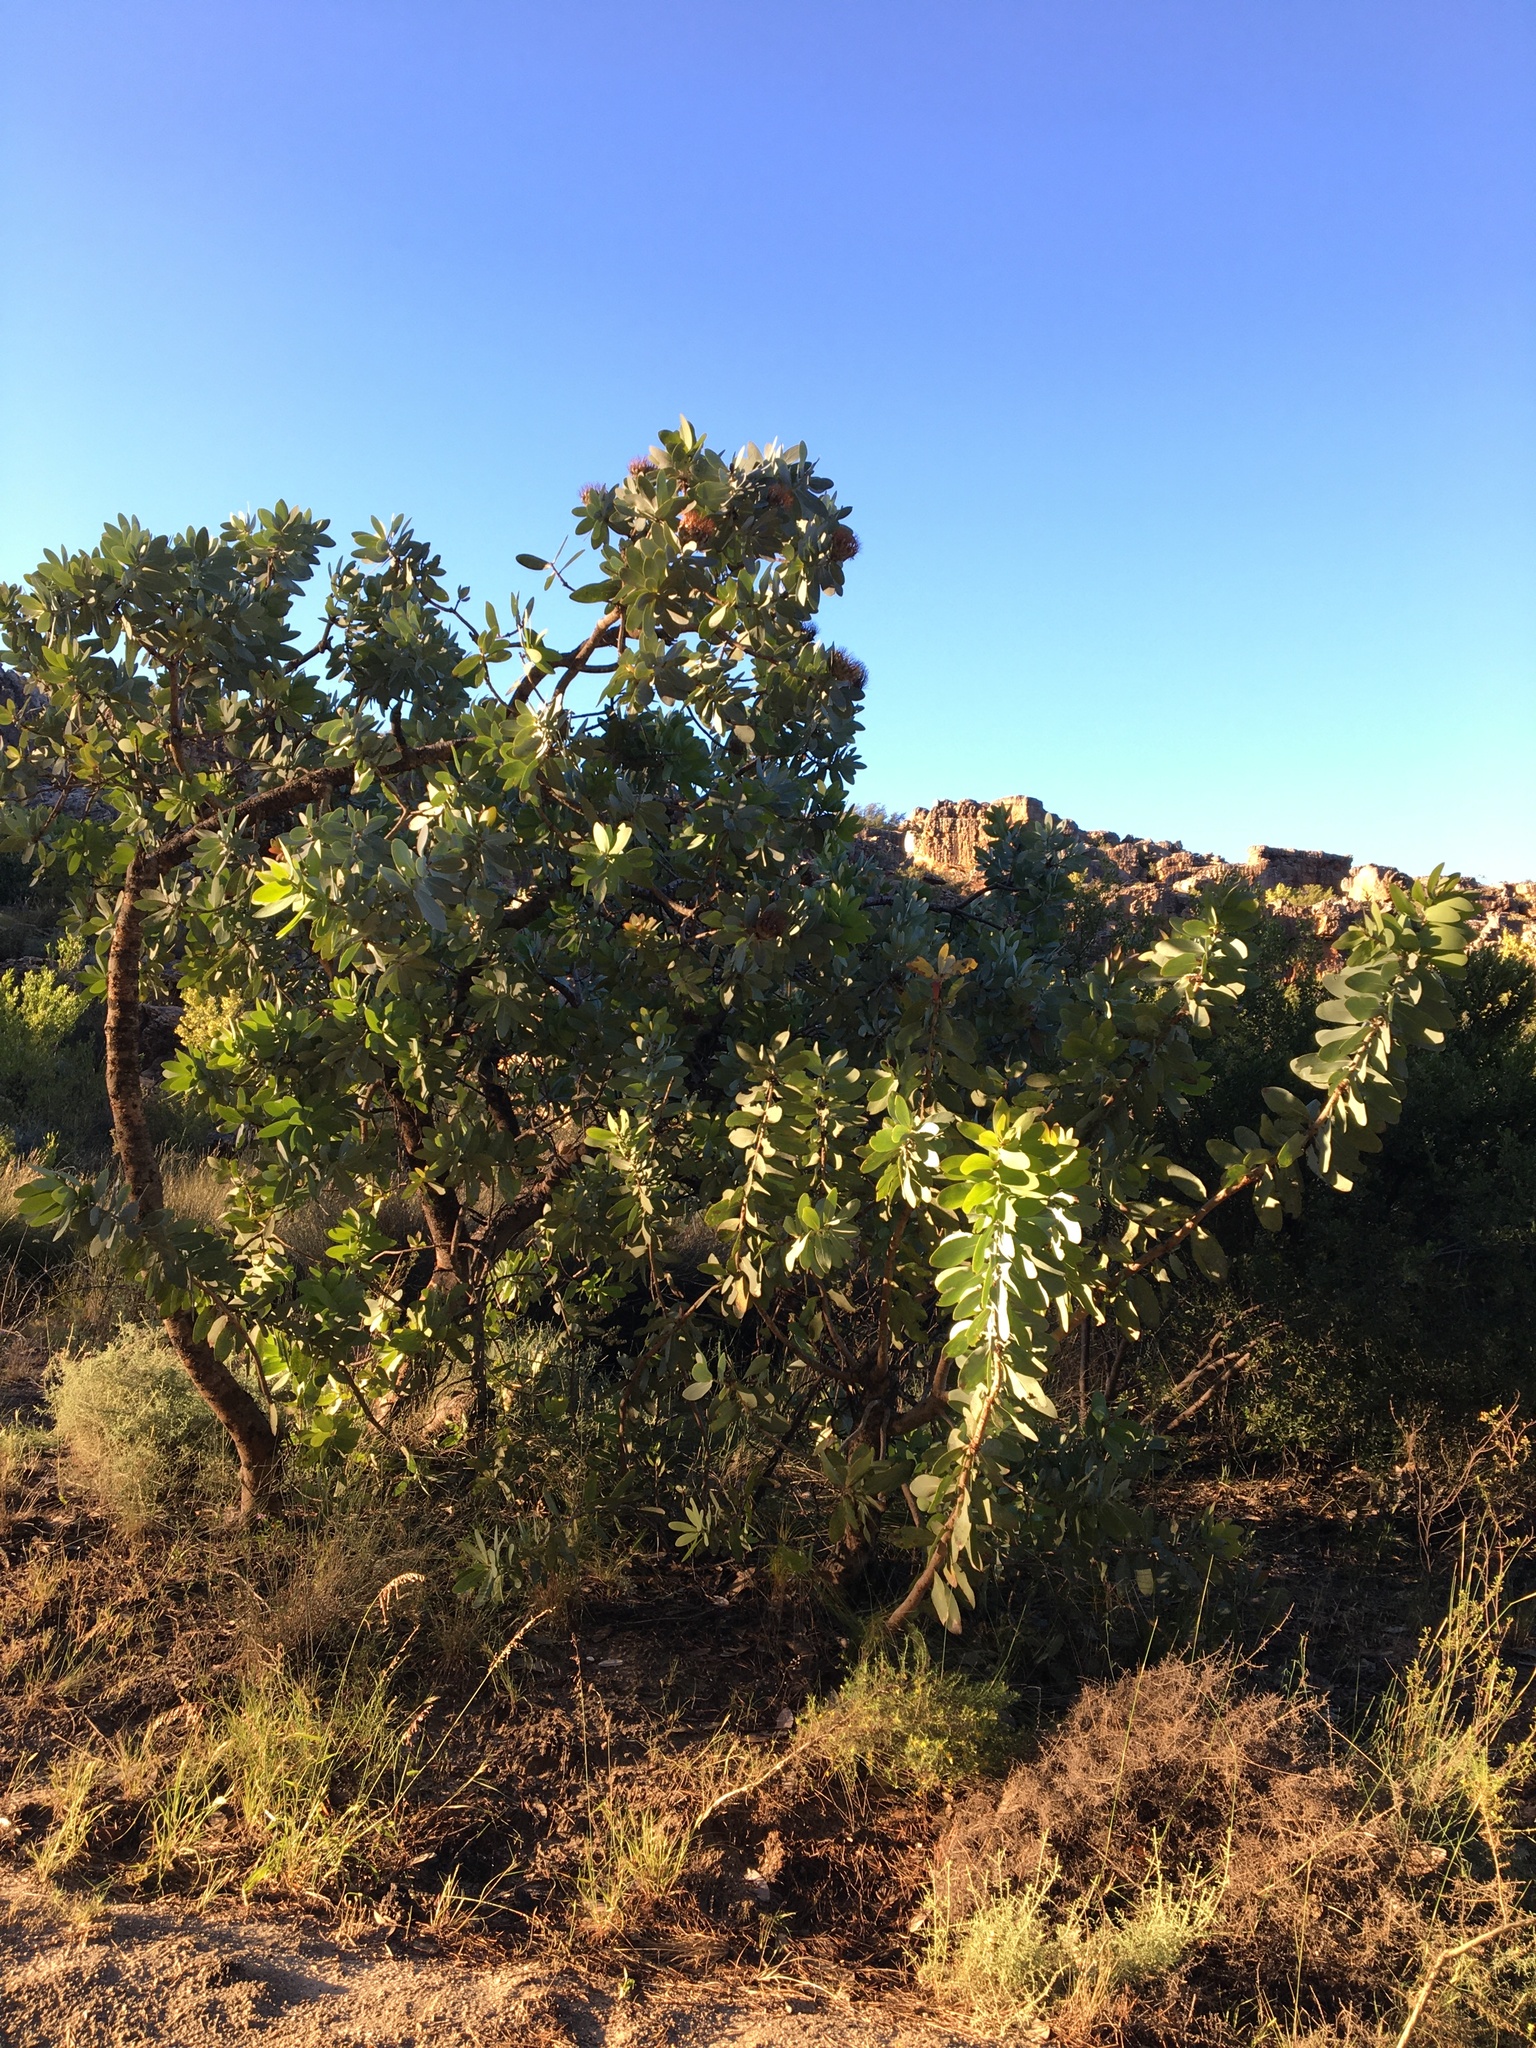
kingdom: Plantae
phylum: Tracheophyta
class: Magnoliopsida
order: Proteales
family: Proteaceae
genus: Protea
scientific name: Protea nitida
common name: Tree protea
